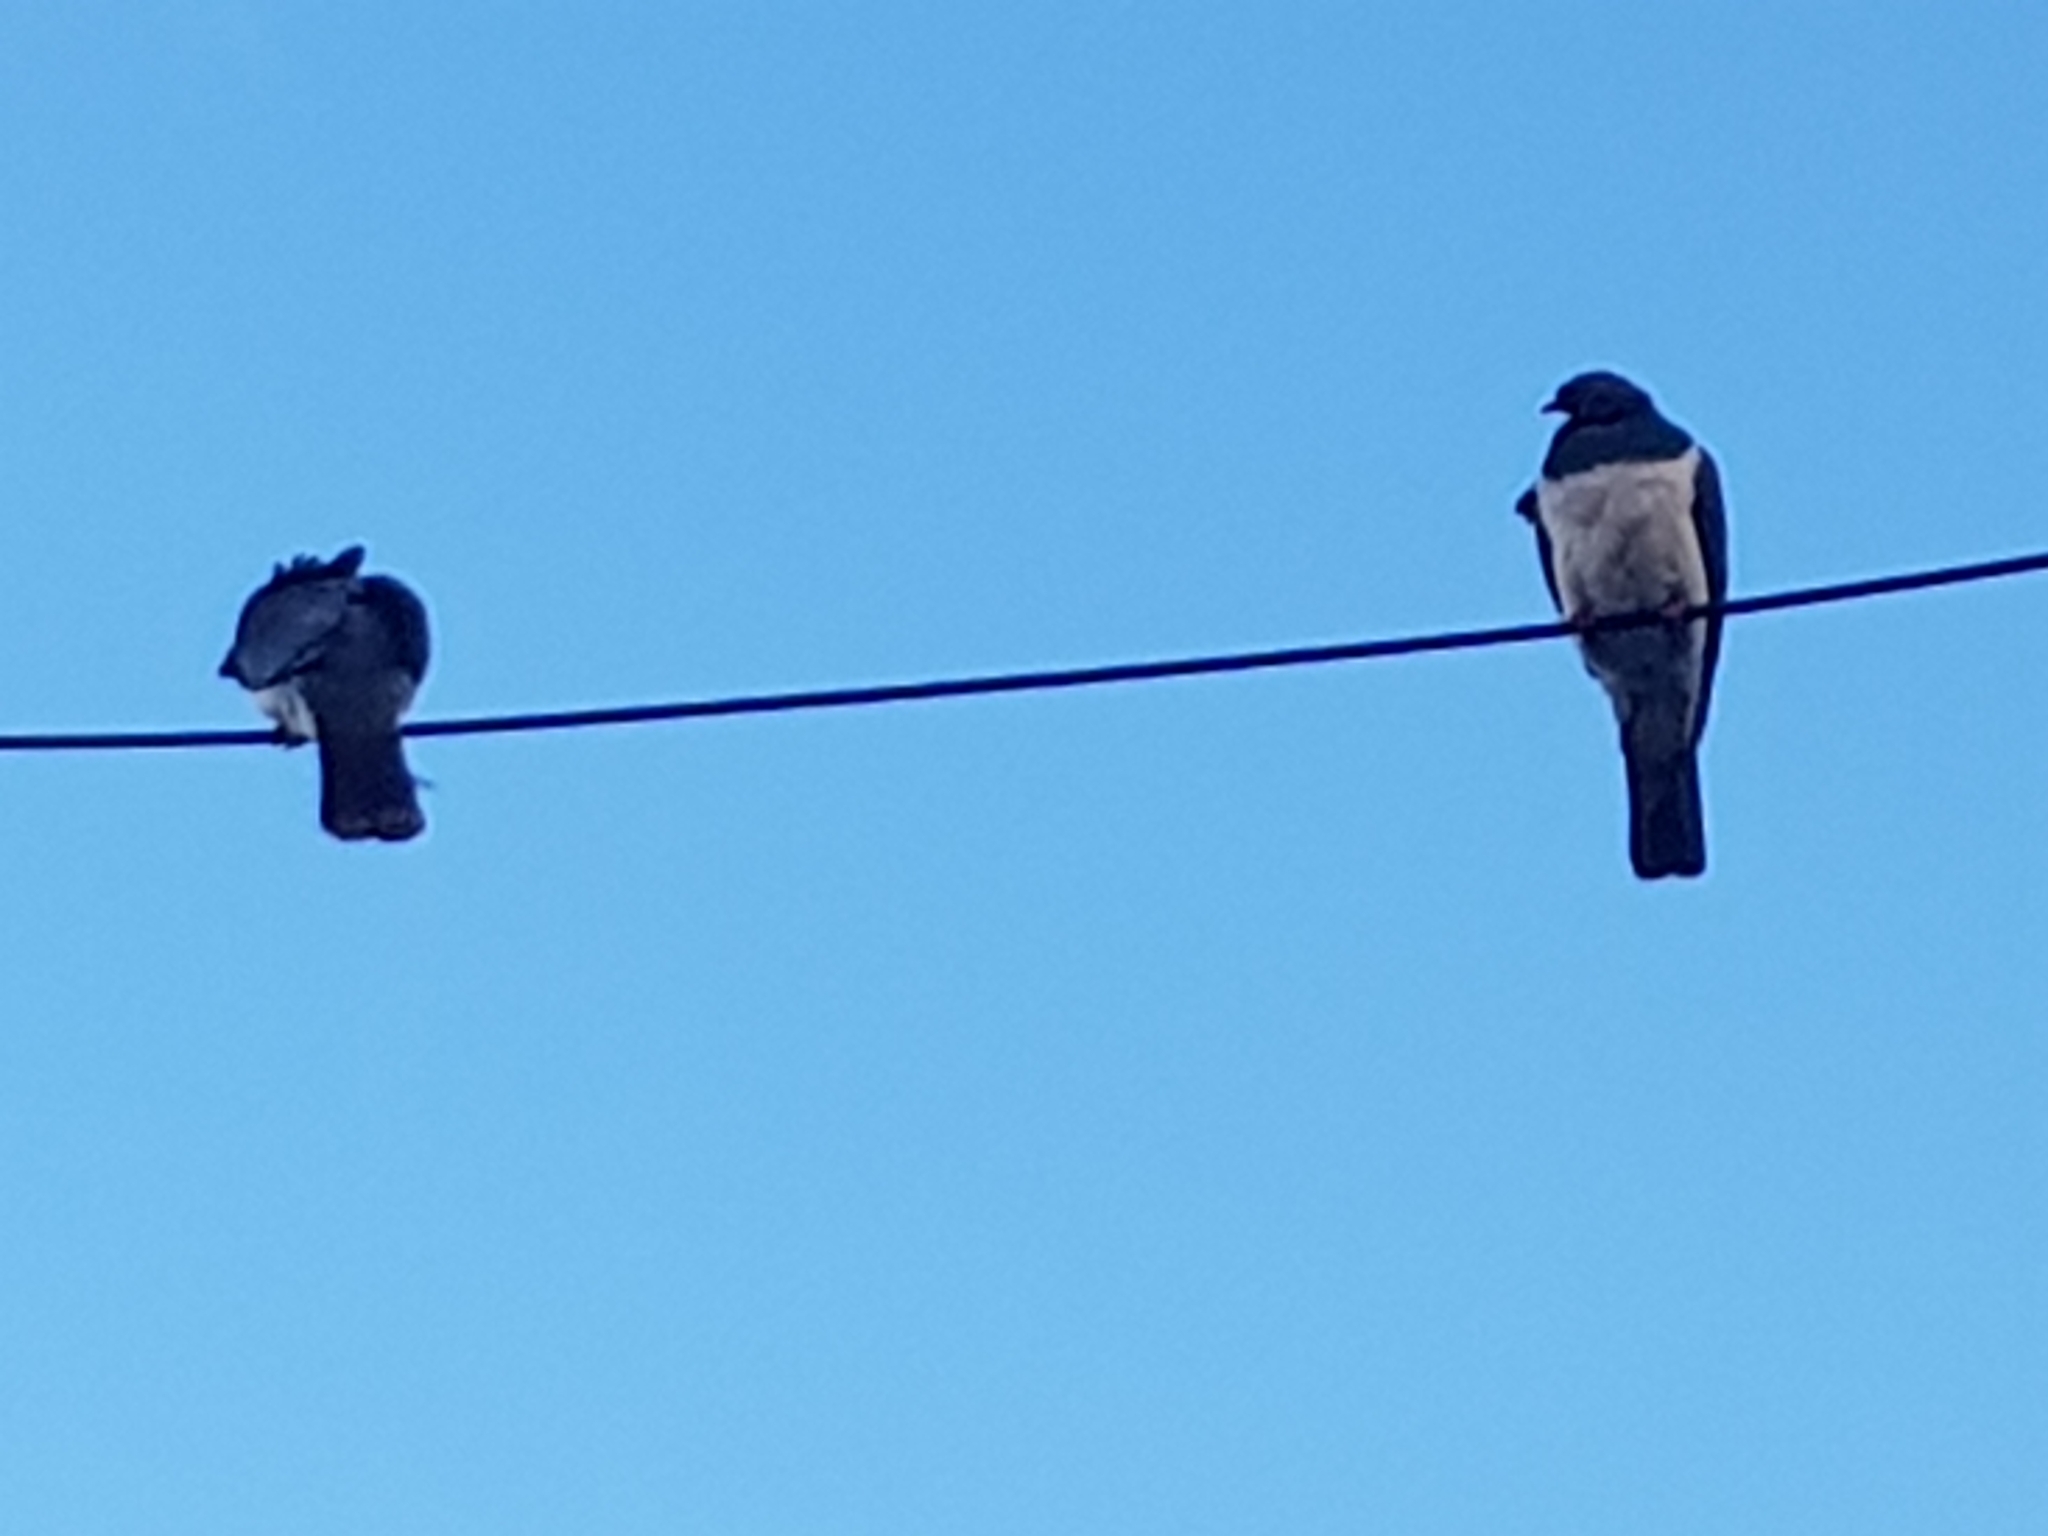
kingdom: Animalia
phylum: Chordata
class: Aves
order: Columbiformes
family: Columbidae
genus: Hemiphaga
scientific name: Hemiphaga novaeseelandiae
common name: New zealand pigeon
